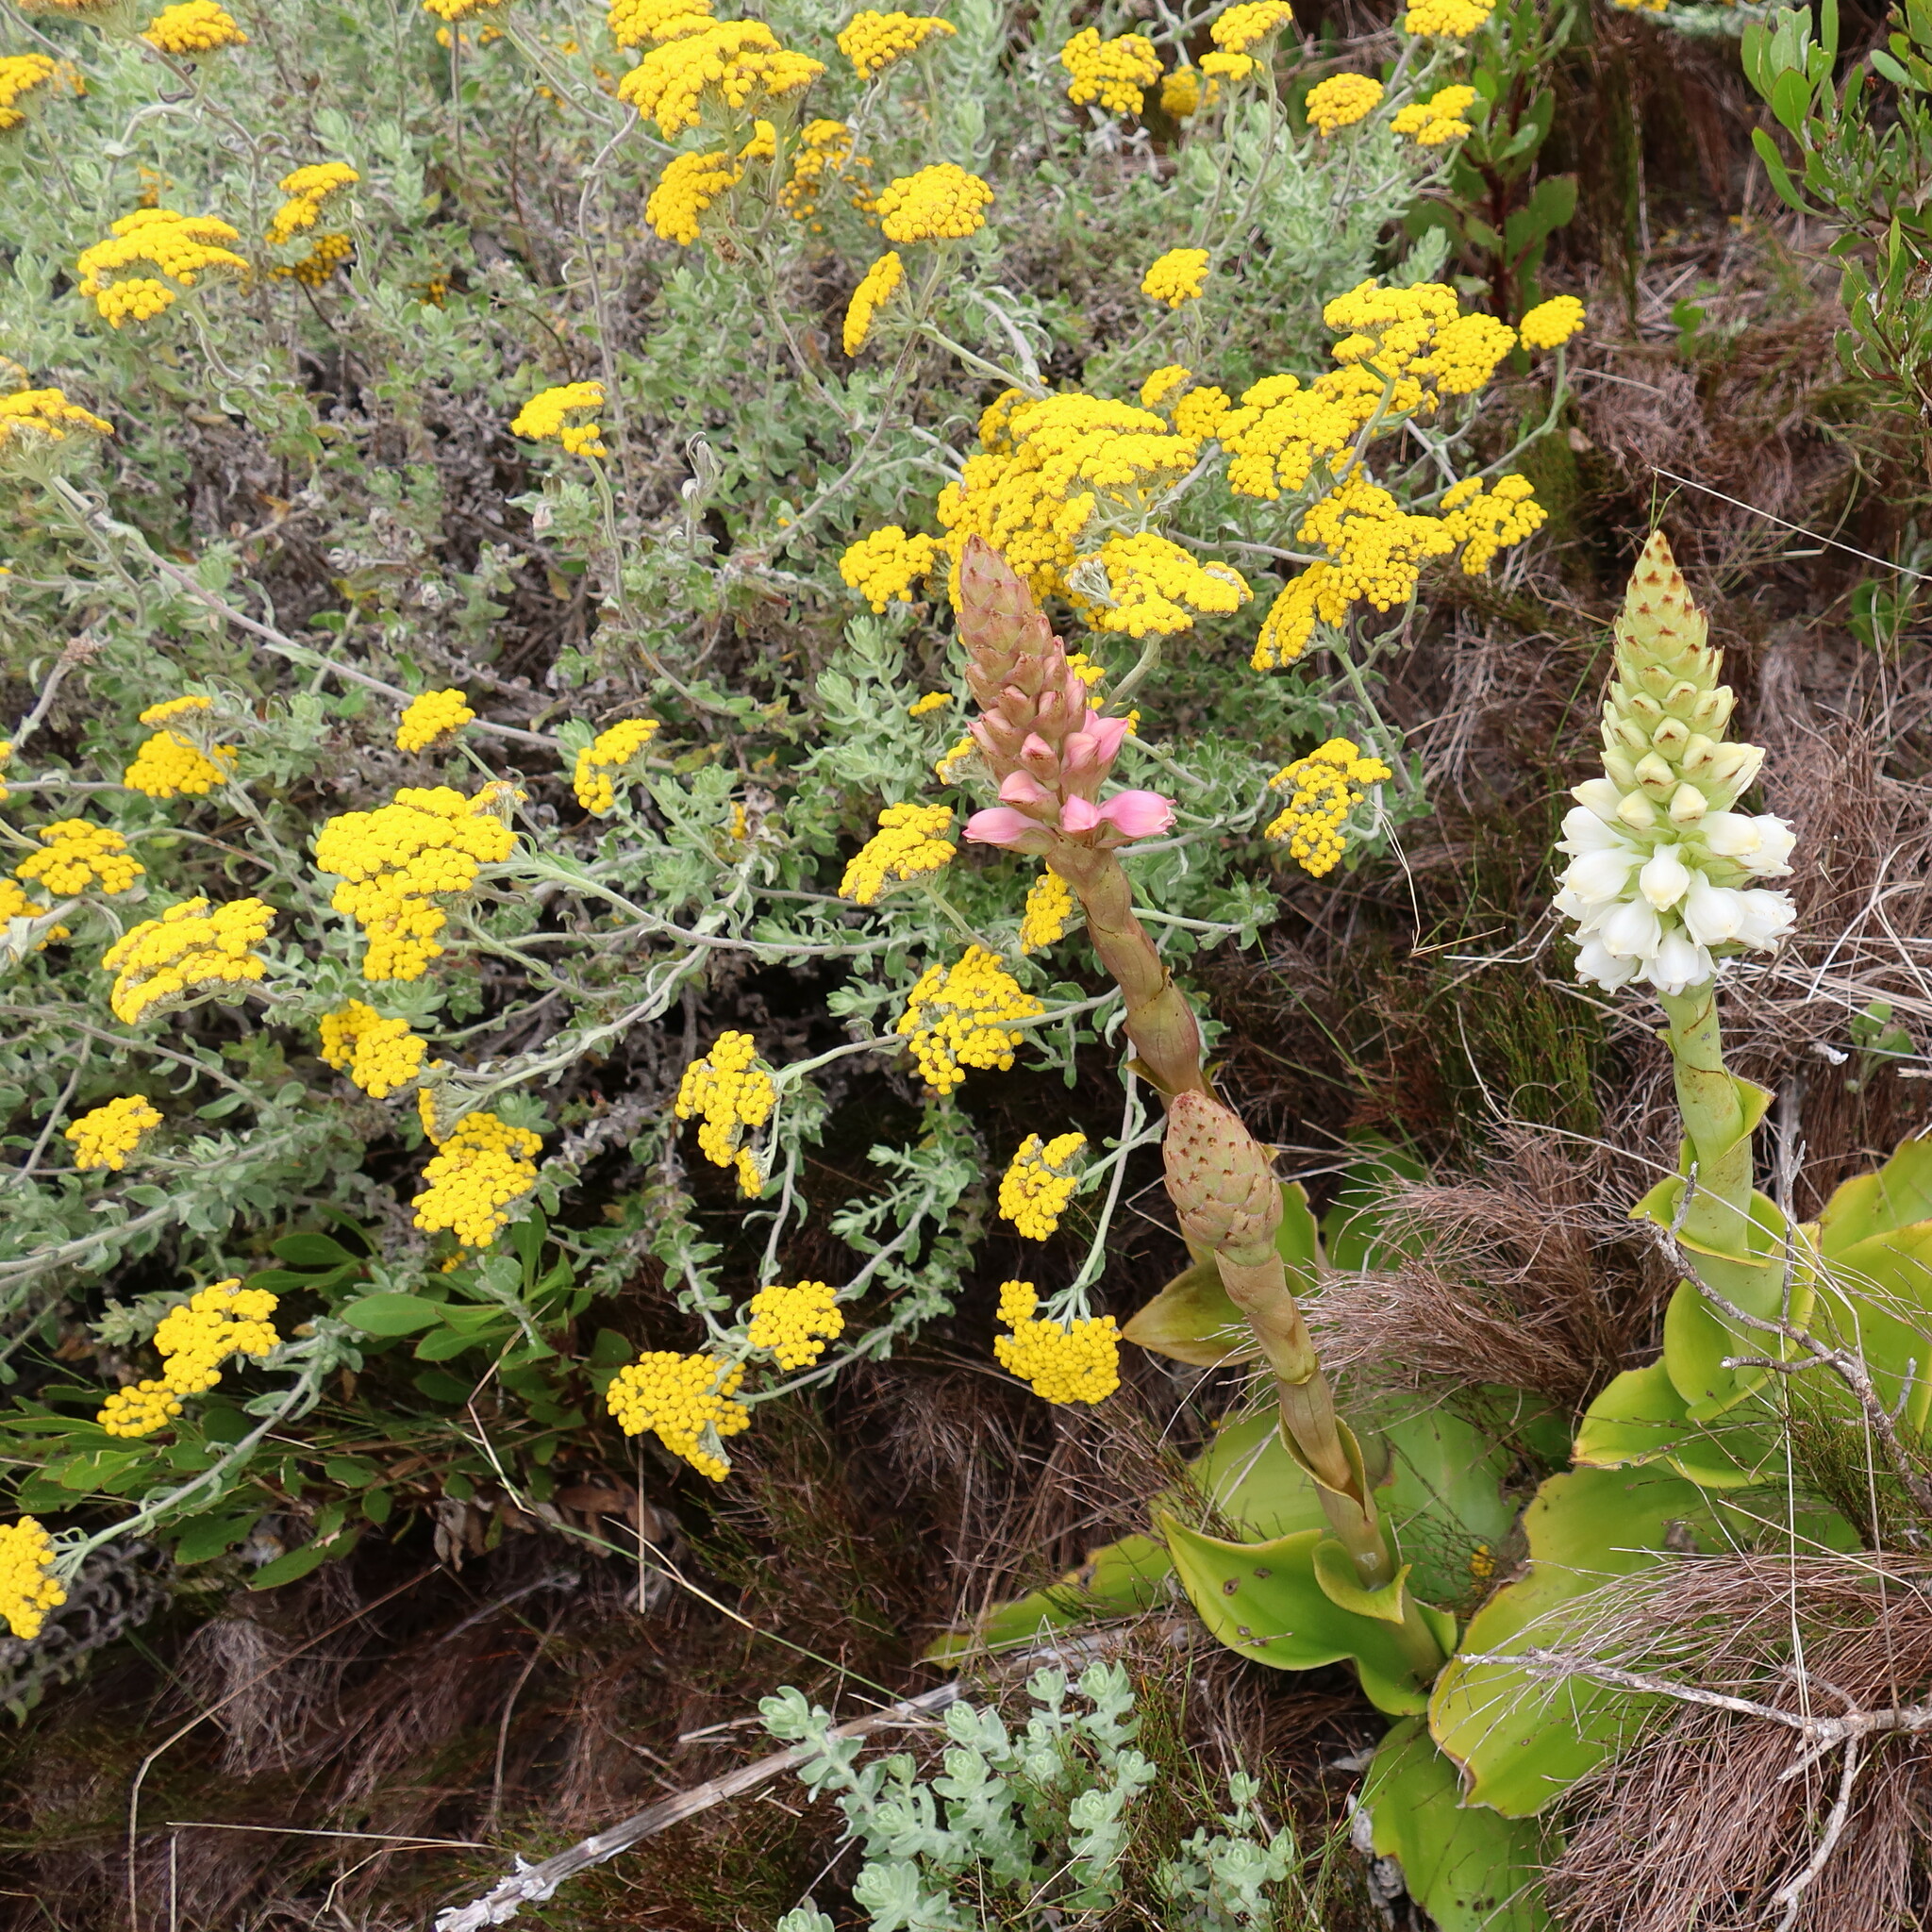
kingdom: Plantae
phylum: Tracheophyta
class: Magnoliopsida
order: Asterales
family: Asteraceae
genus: Helichrysum
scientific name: Helichrysum dasyanthum
